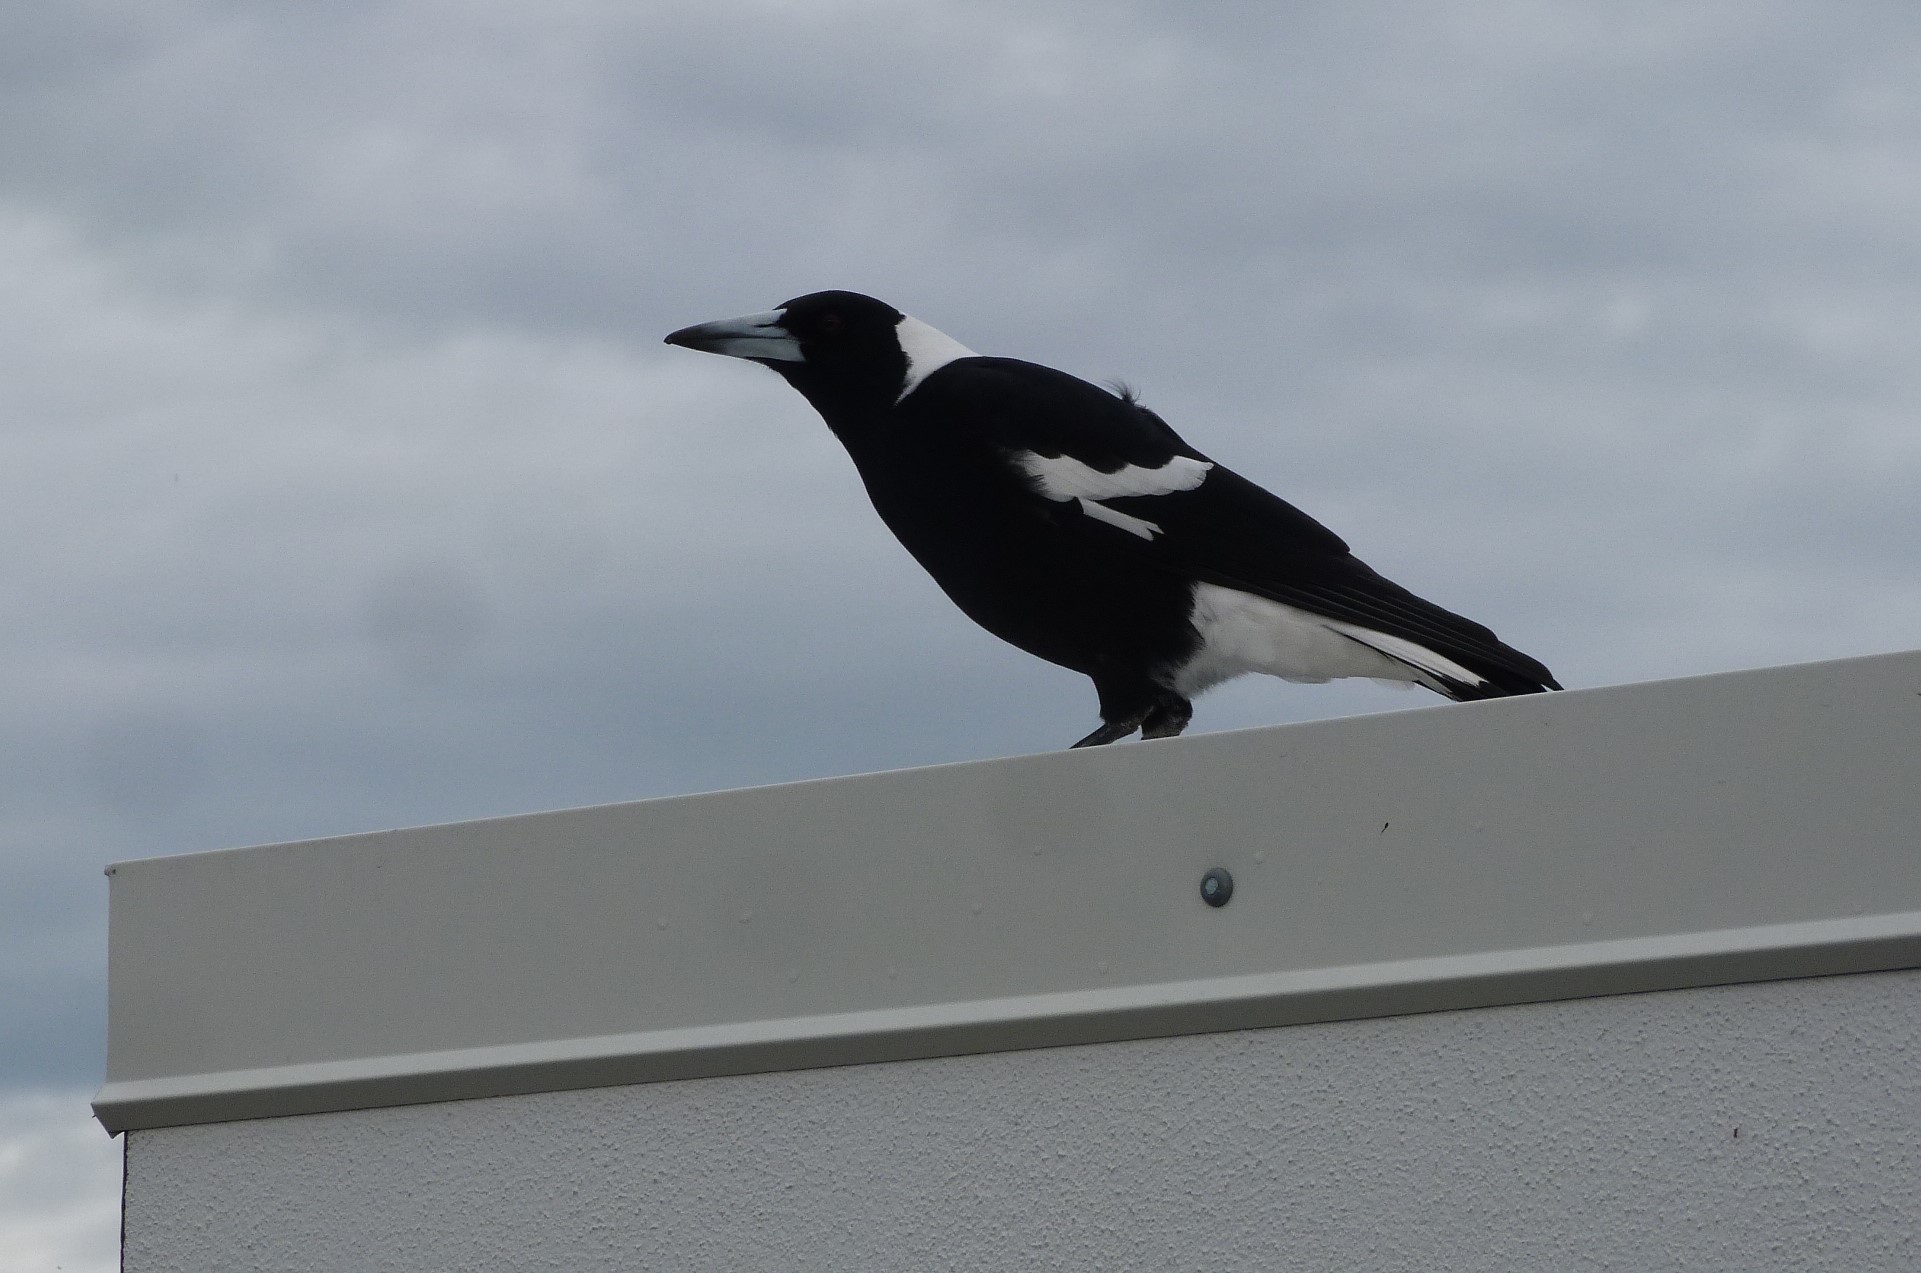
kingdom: Animalia
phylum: Chordata
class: Aves
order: Passeriformes
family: Cracticidae
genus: Gymnorhina
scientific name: Gymnorhina tibicen
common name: Australian magpie
